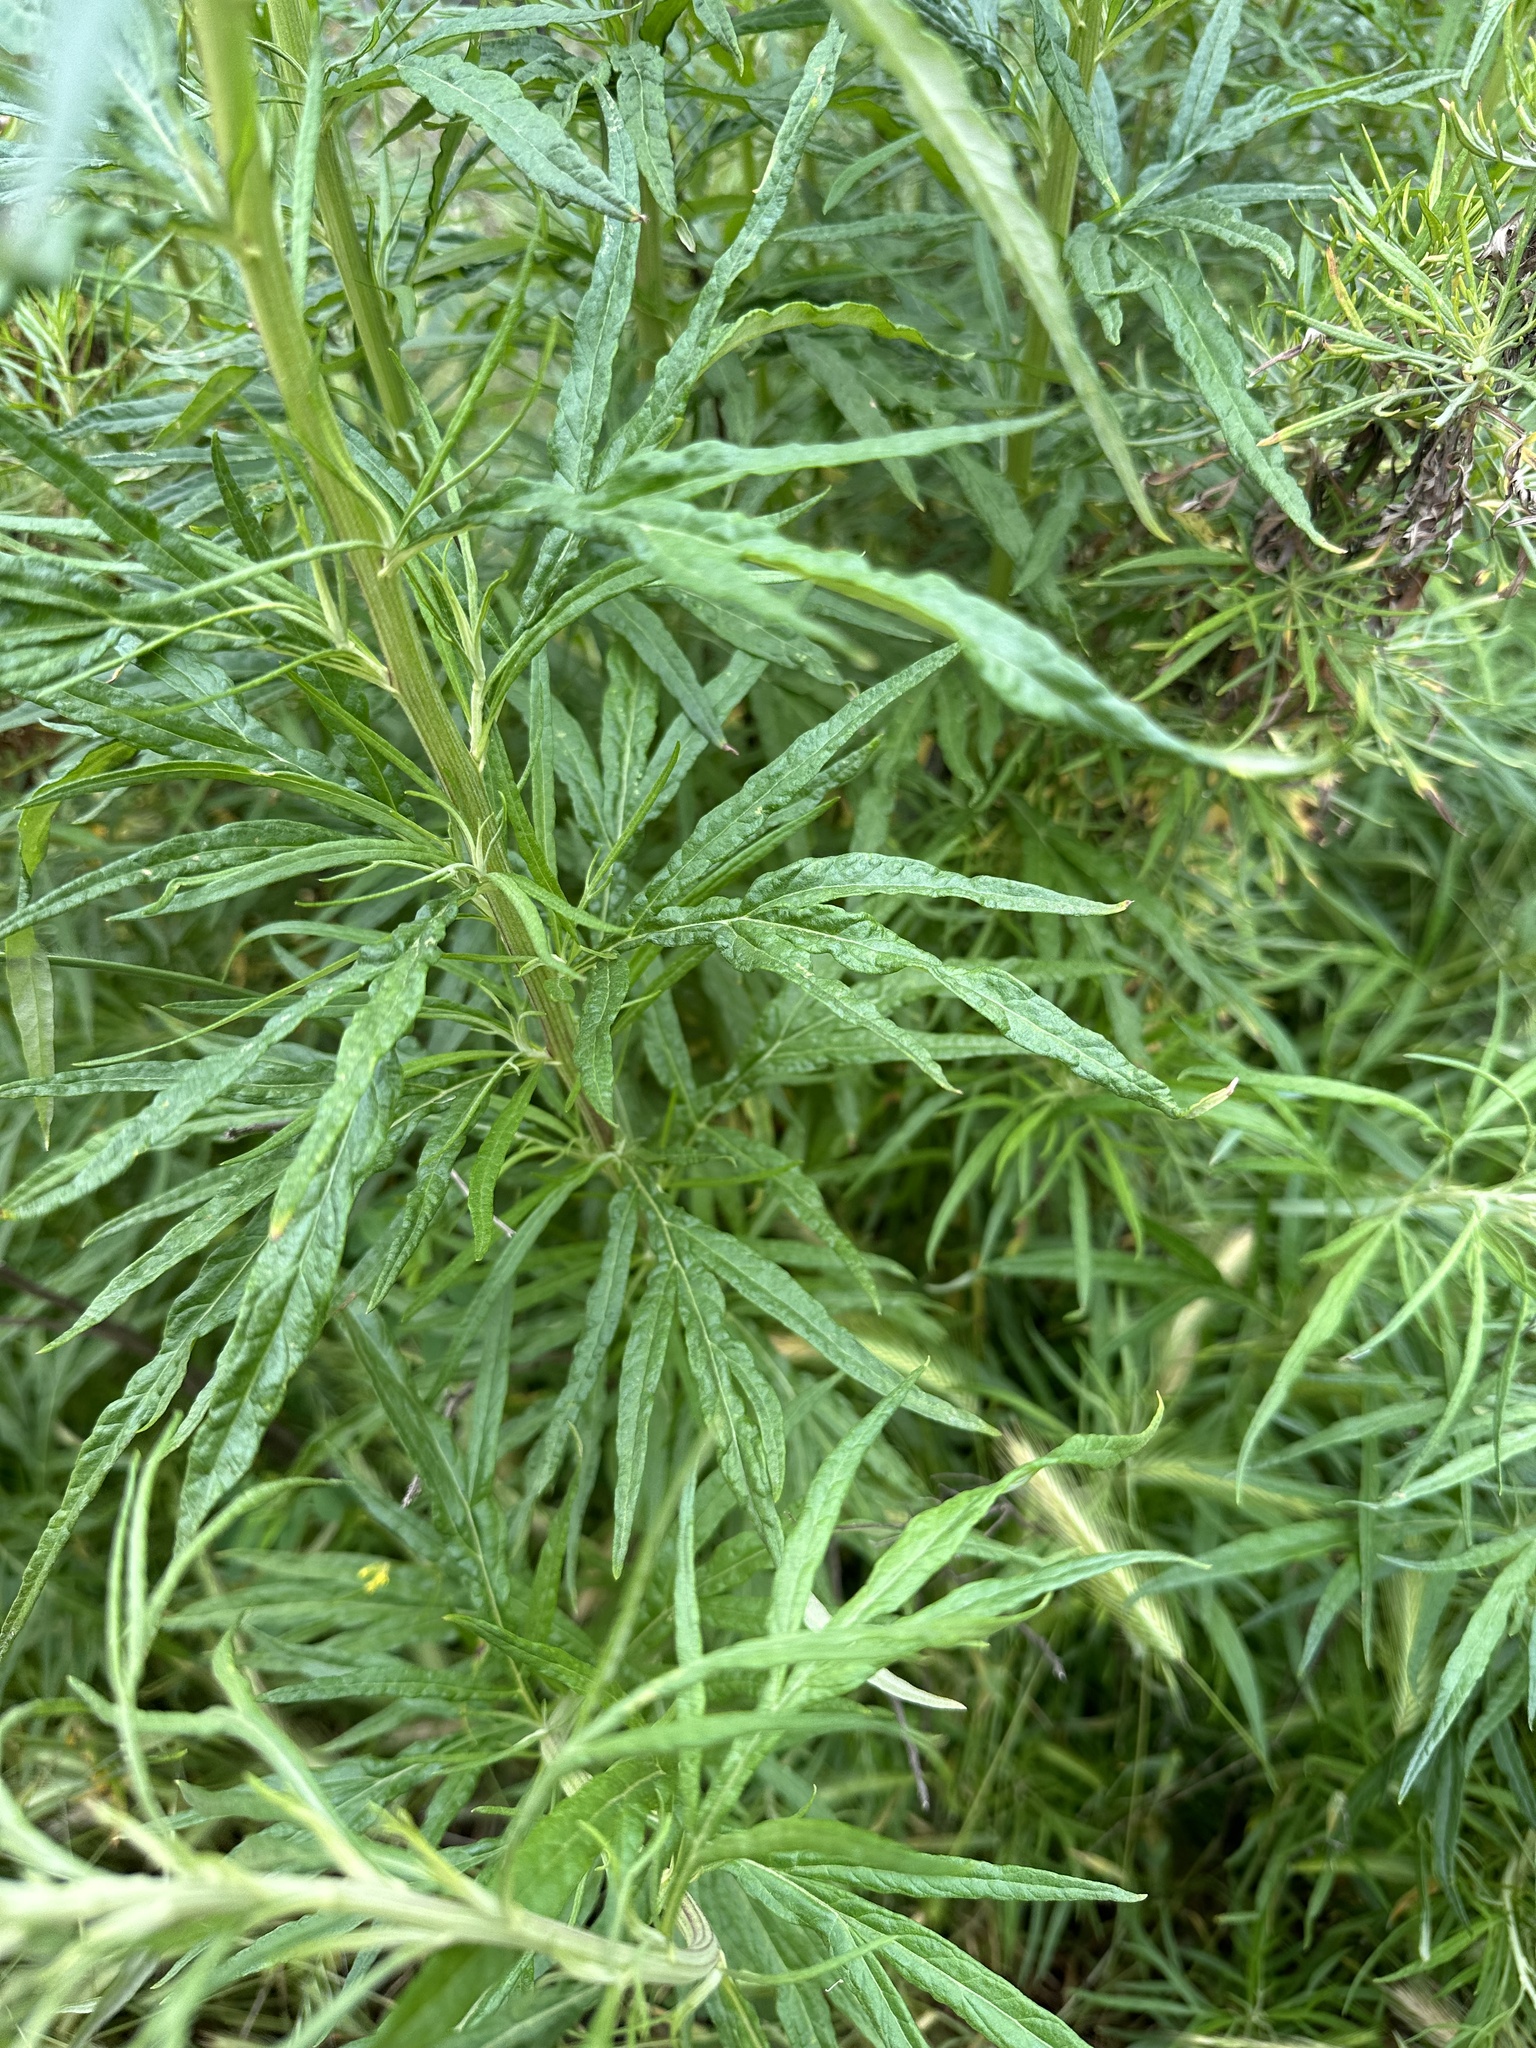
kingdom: Plantae
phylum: Tracheophyta
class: Magnoliopsida
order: Asterales
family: Asteraceae
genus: Artemisia
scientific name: Artemisia palmeri
